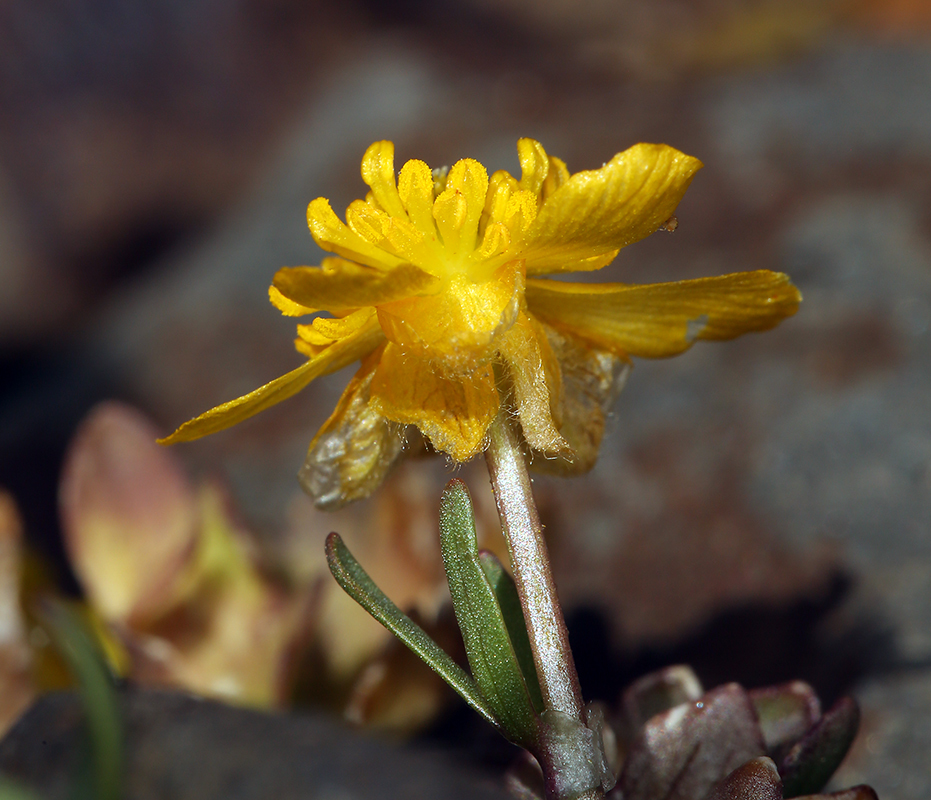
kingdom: Plantae
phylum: Tracheophyta
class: Magnoliopsida
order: Ranunculales
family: Ranunculaceae
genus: Ranunculus
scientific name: Ranunculus eschscholtzii
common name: Eschscholtz's buttercup
